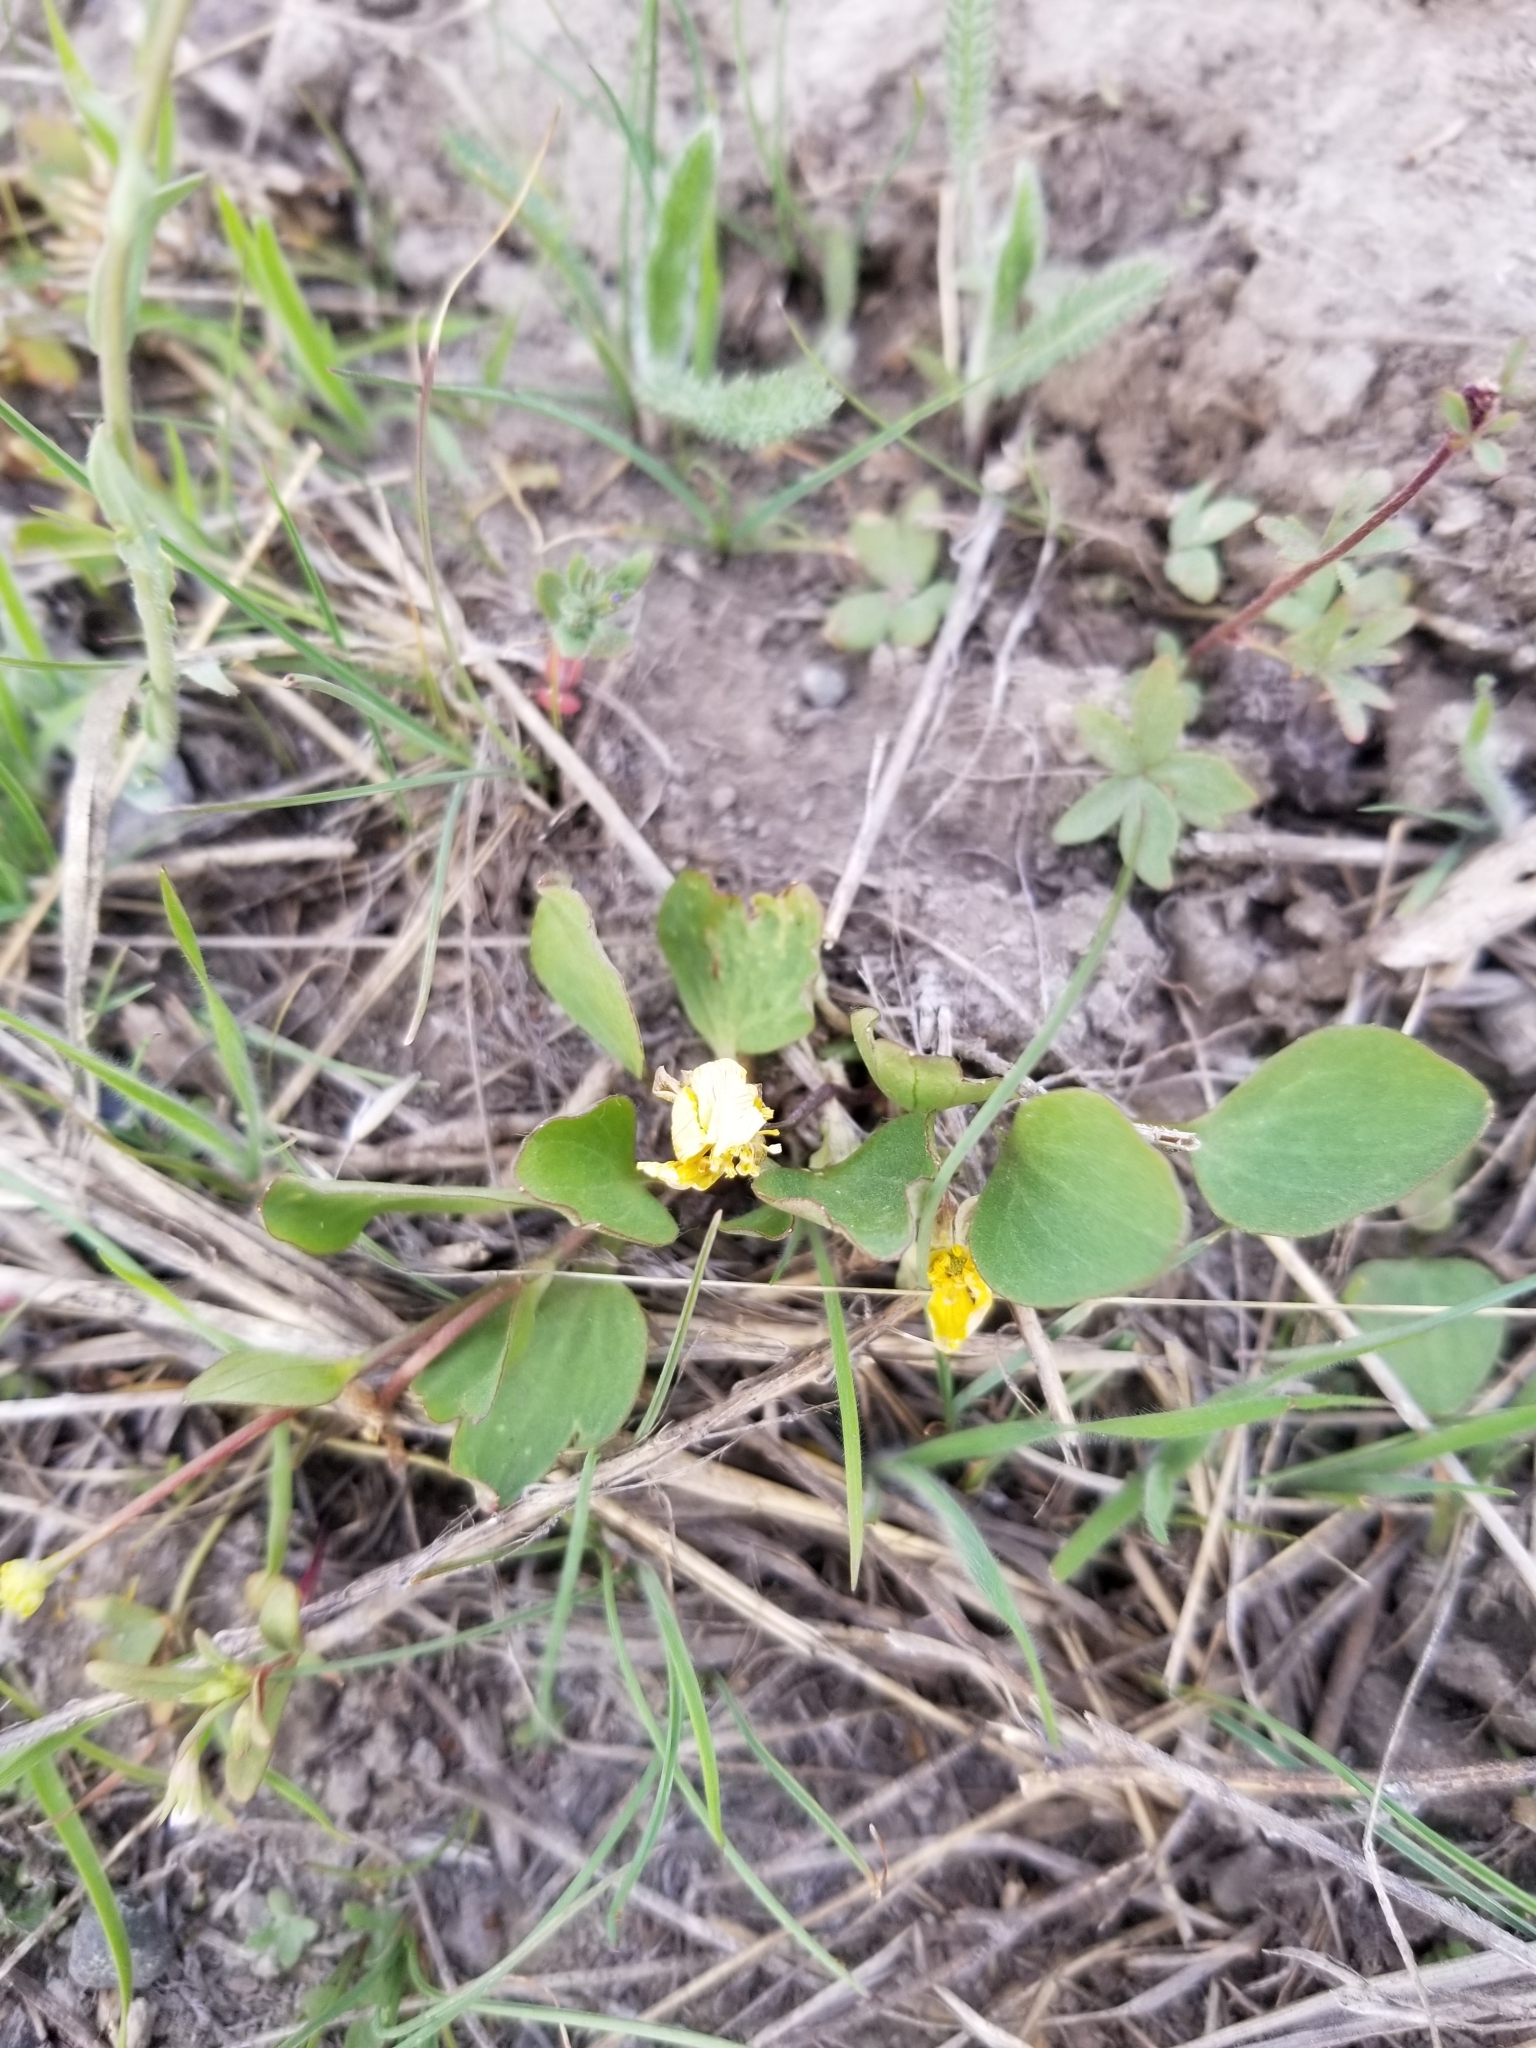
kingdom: Plantae
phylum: Tracheophyta
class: Magnoliopsida
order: Ranunculales
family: Ranunculaceae
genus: Ranunculus
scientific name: Ranunculus glaberrimus
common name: Sagebrush buttercup
